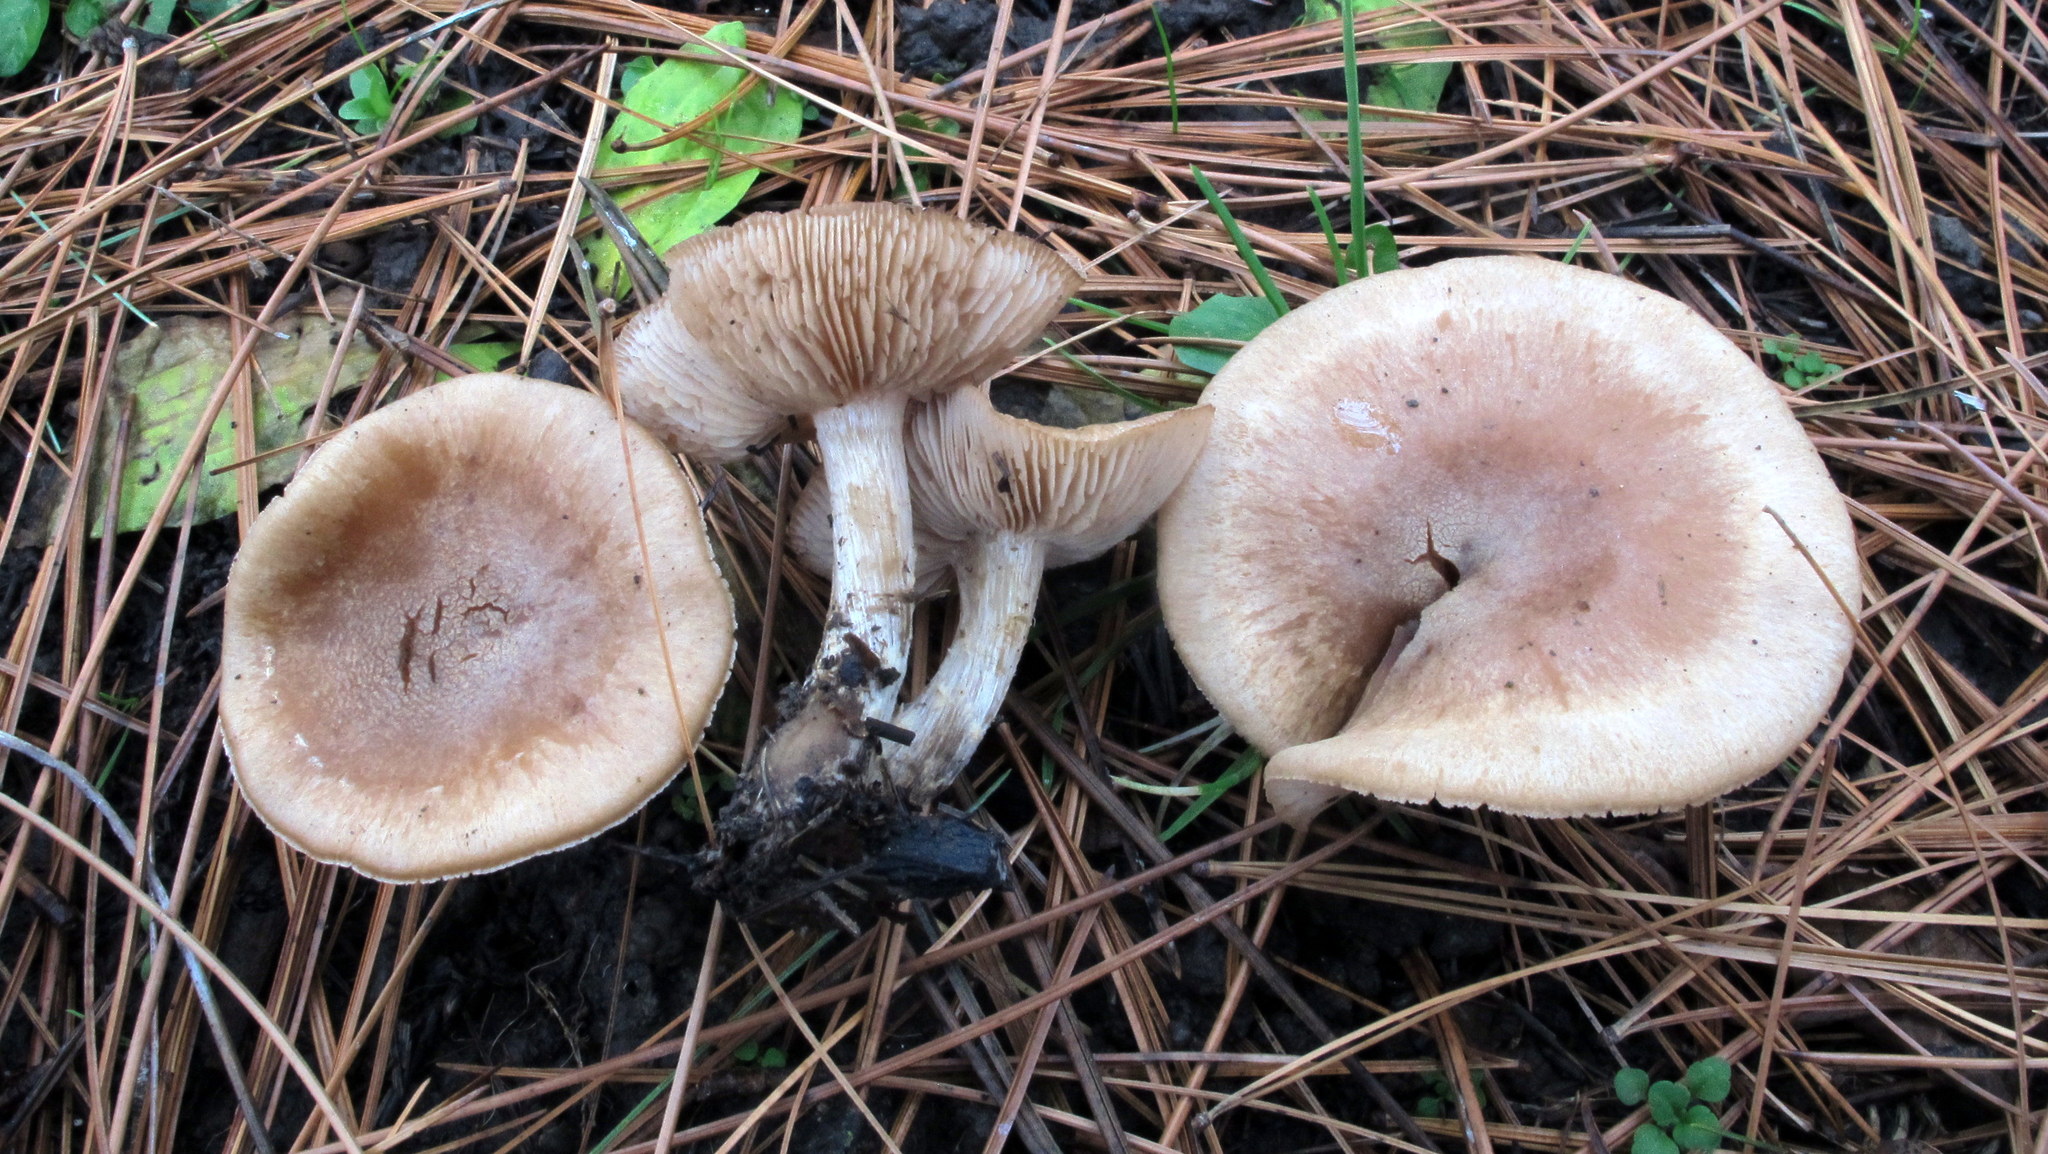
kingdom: Fungi
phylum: Basidiomycota
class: Agaricomycetes
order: Agaricales
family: Hymenogastraceae
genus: Hebeloma
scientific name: Hebeloma excedens
